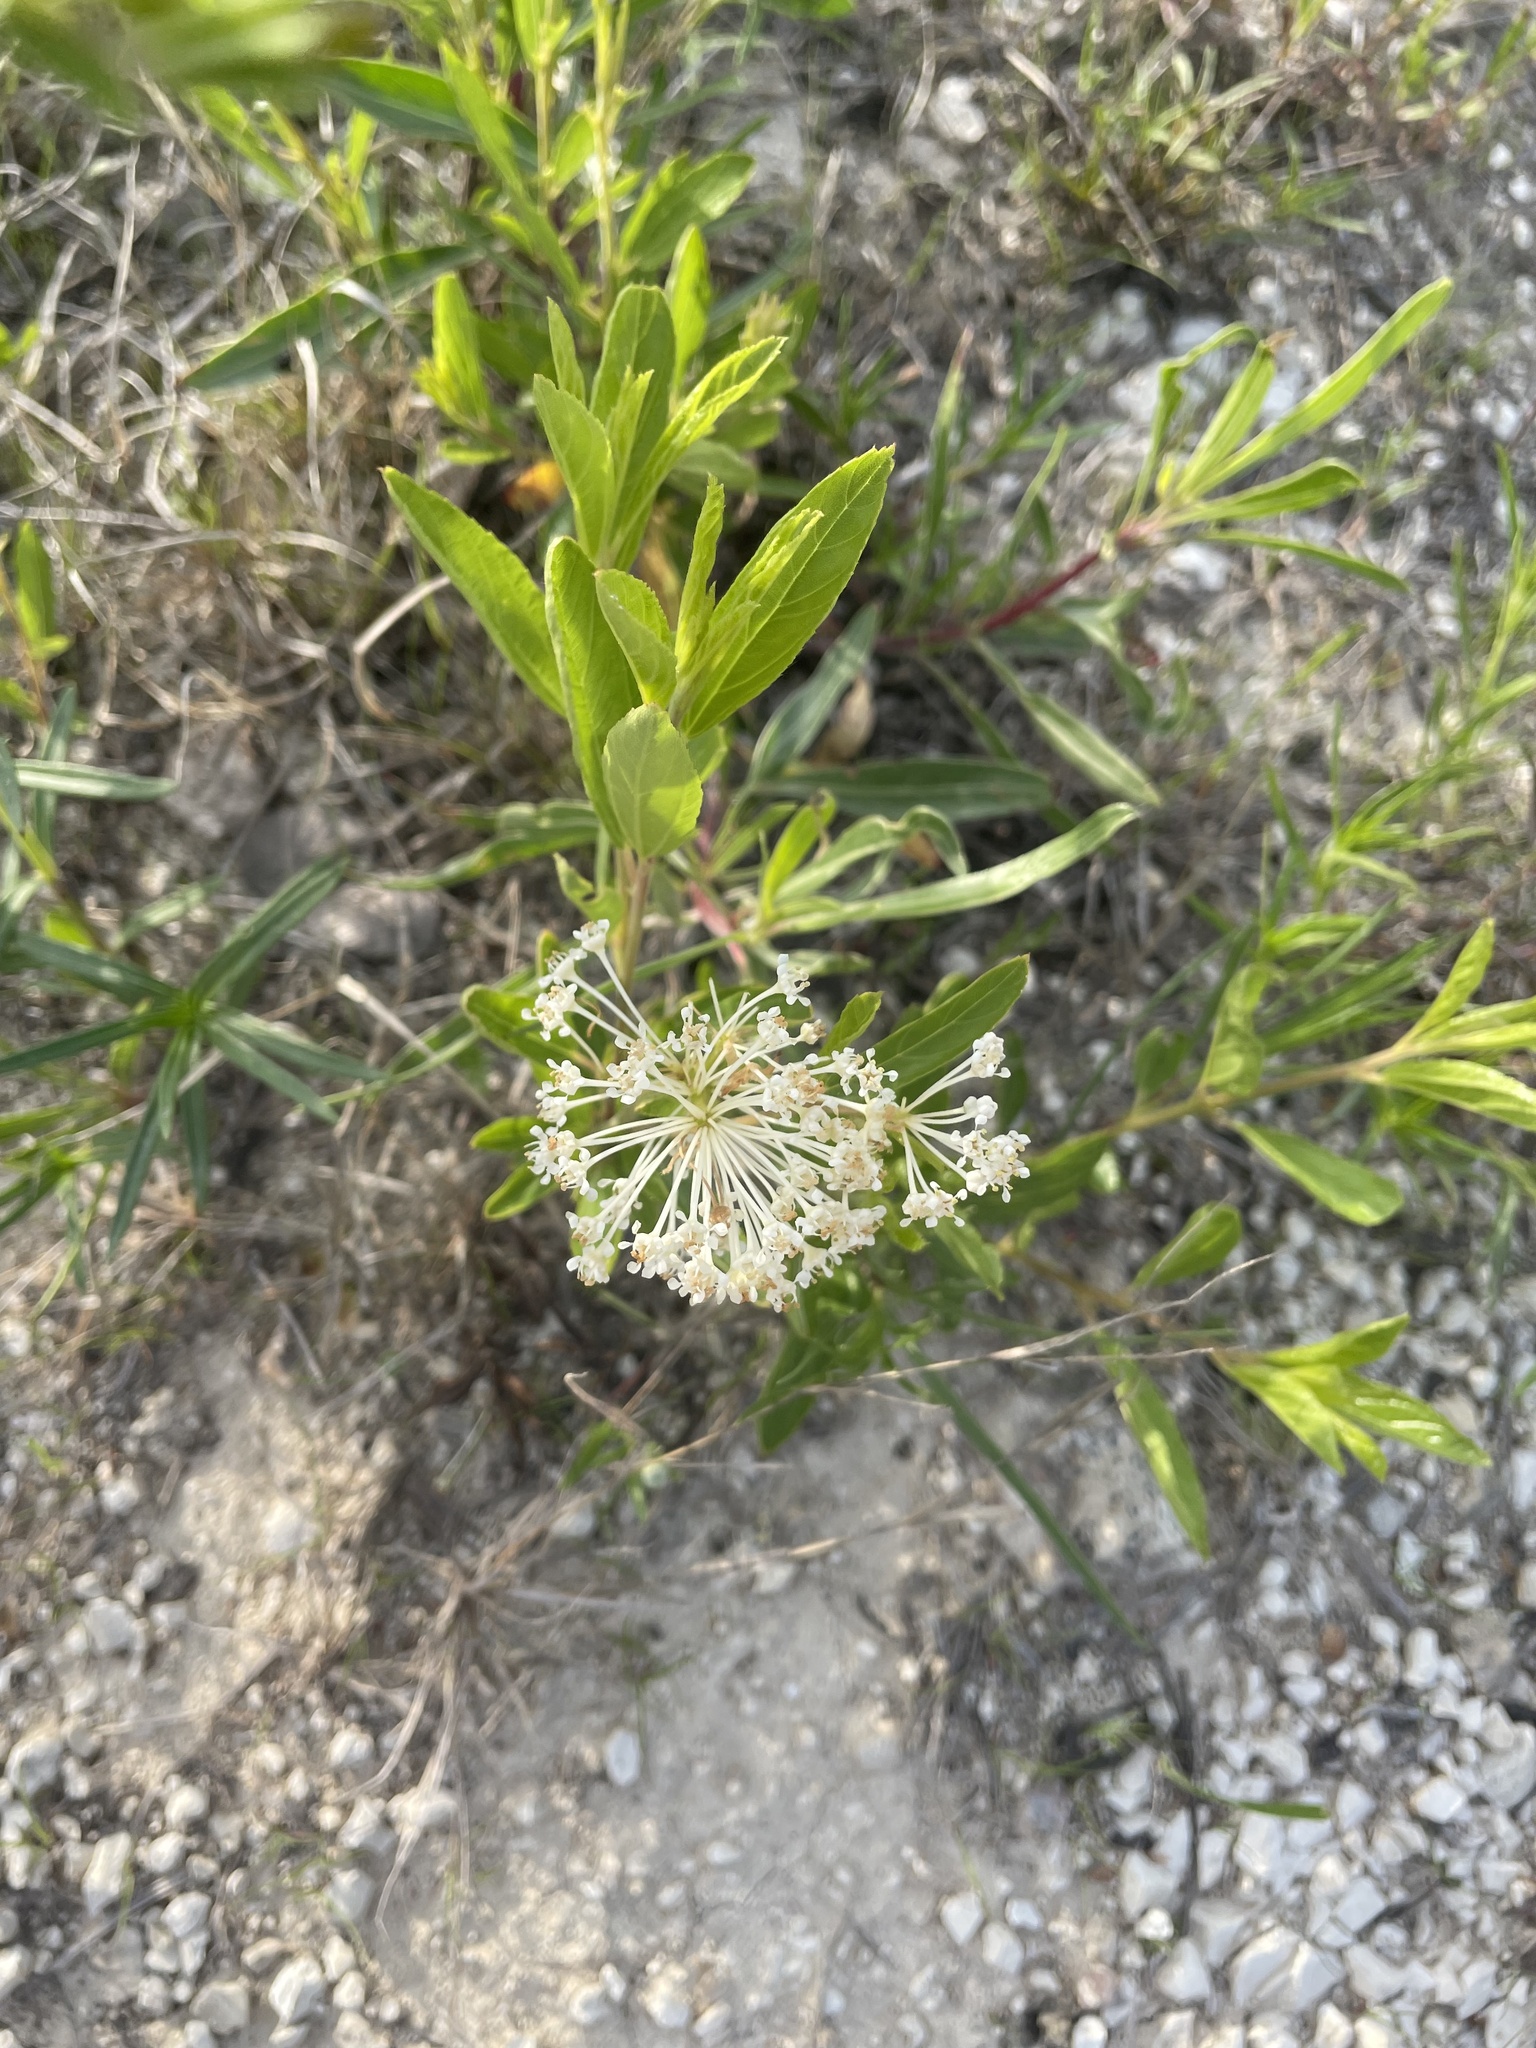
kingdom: Plantae
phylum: Tracheophyta
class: Magnoliopsida
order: Rosales
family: Rhamnaceae
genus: Ceanothus
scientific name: Ceanothus herbaceus
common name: Inland ceanothus
